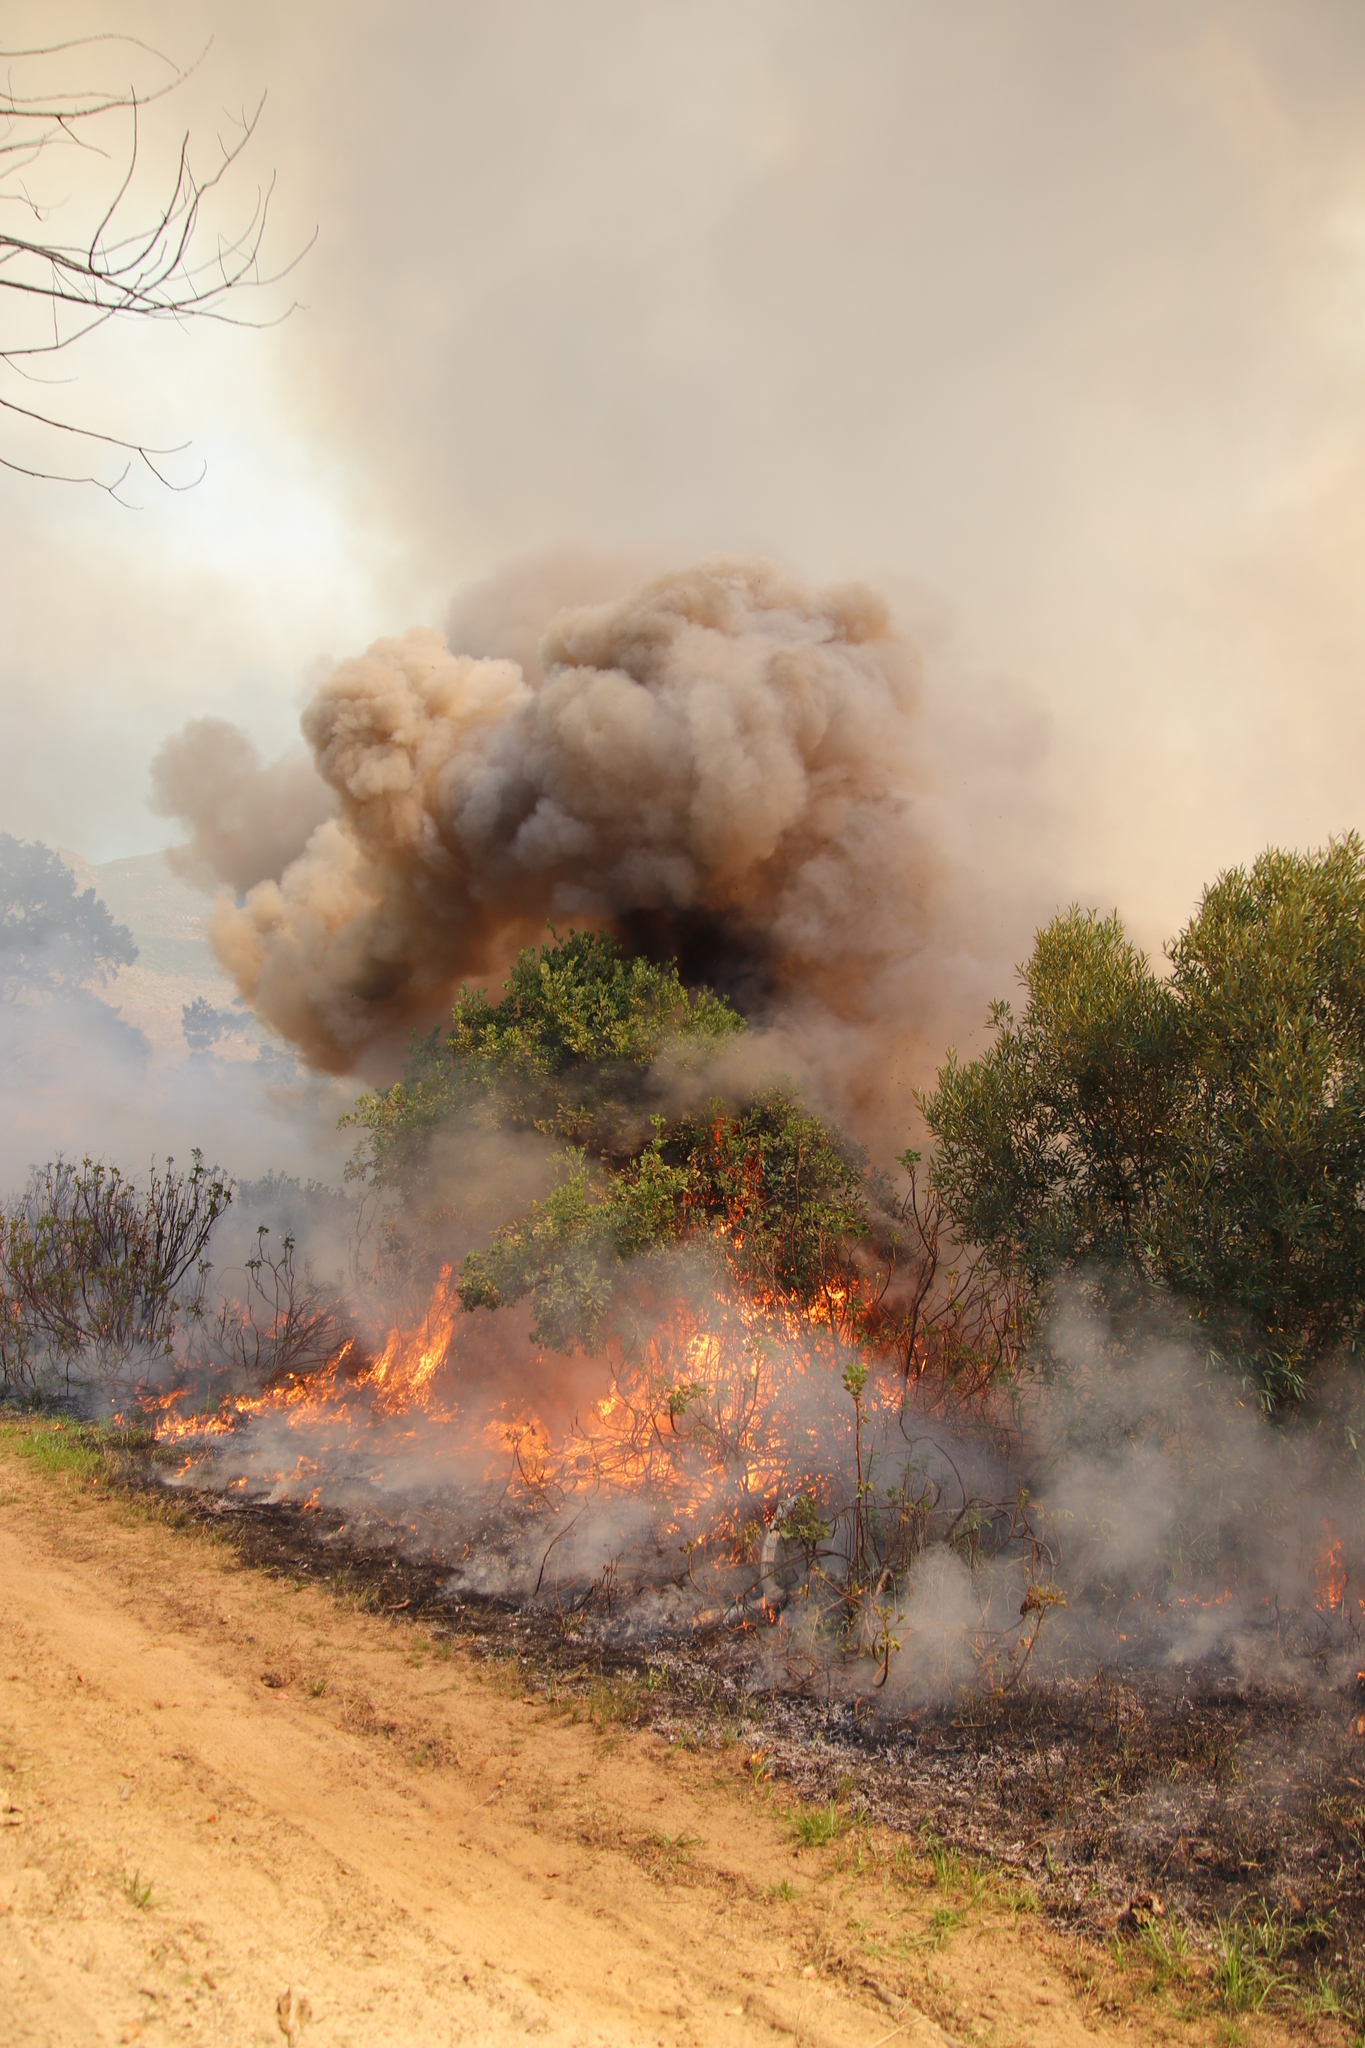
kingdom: Plantae
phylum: Tracheophyta
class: Magnoliopsida
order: Caryophyllales
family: Aizoaceae
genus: Carpobrotus
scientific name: Carpobrotus edulis
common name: Hottentot-fig
